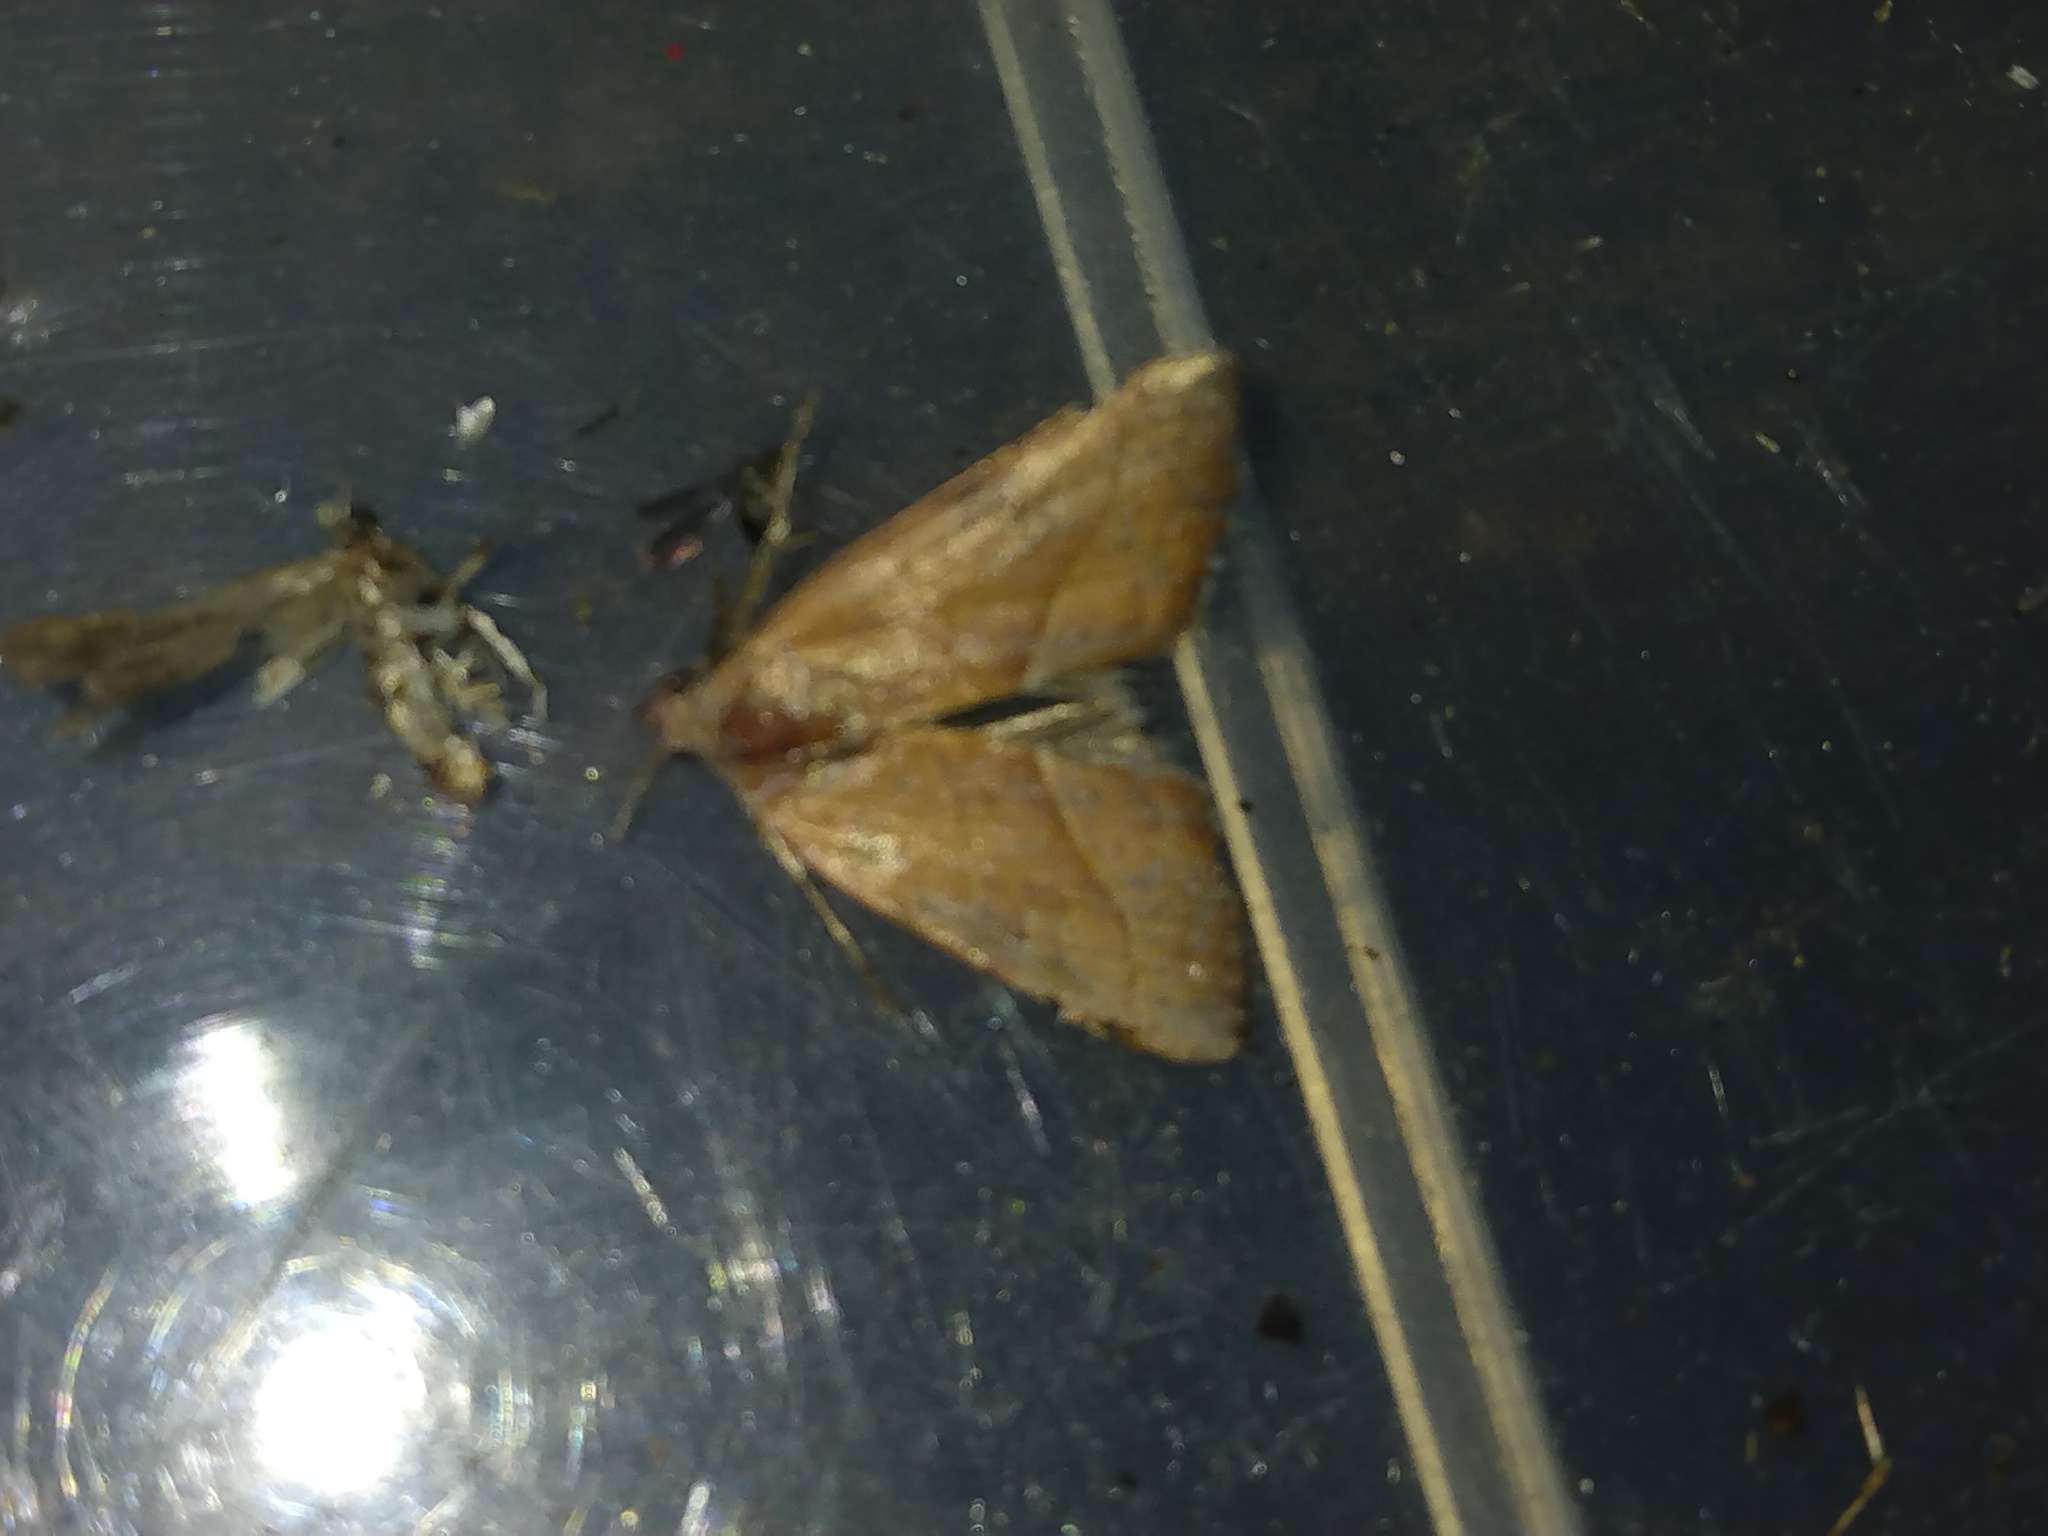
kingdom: Animalia
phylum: Arthropoda
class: Insecta
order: Lepidoptera
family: Noctuidae
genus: Galgula
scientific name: Galgula partita
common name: Wedgeling
